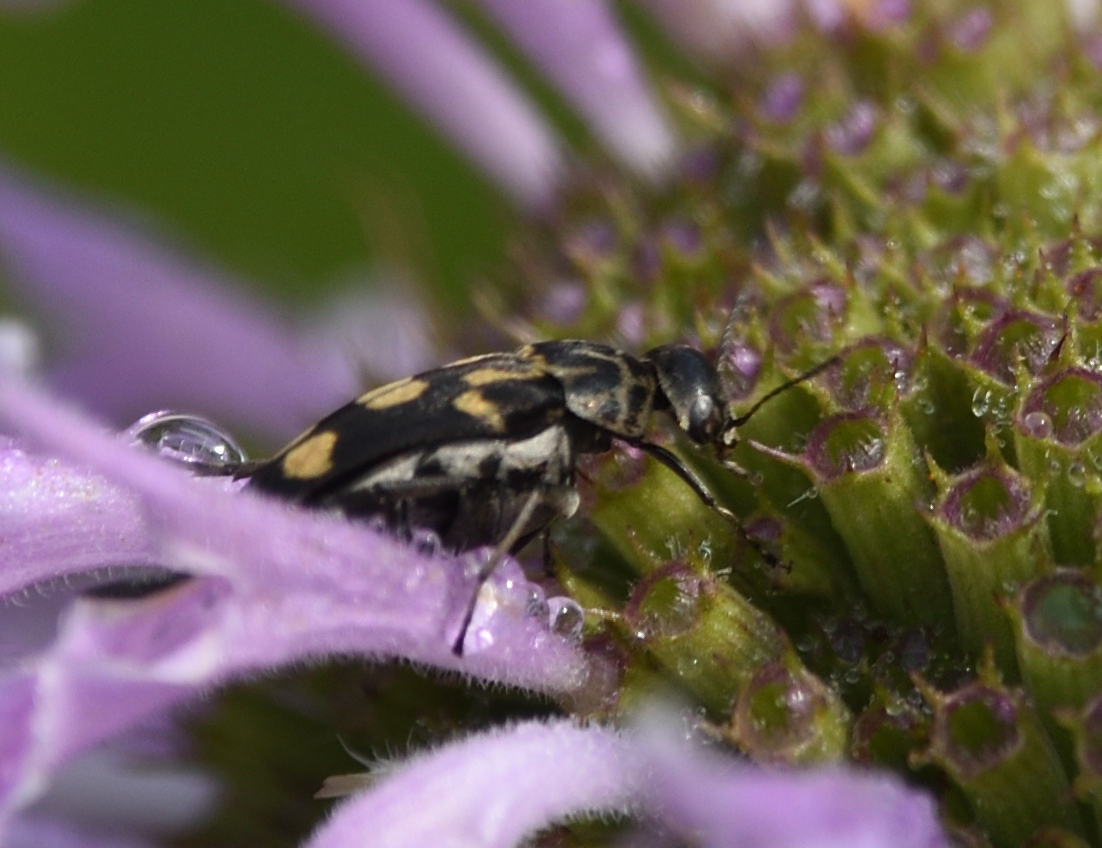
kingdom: Animalia
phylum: Arthropoda
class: Insecta
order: Coleoptera
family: Mordellidae
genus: Hoshihananomia
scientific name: Hoshihananomia octopunctata
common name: Eight-spotted tumbling flower beetle
